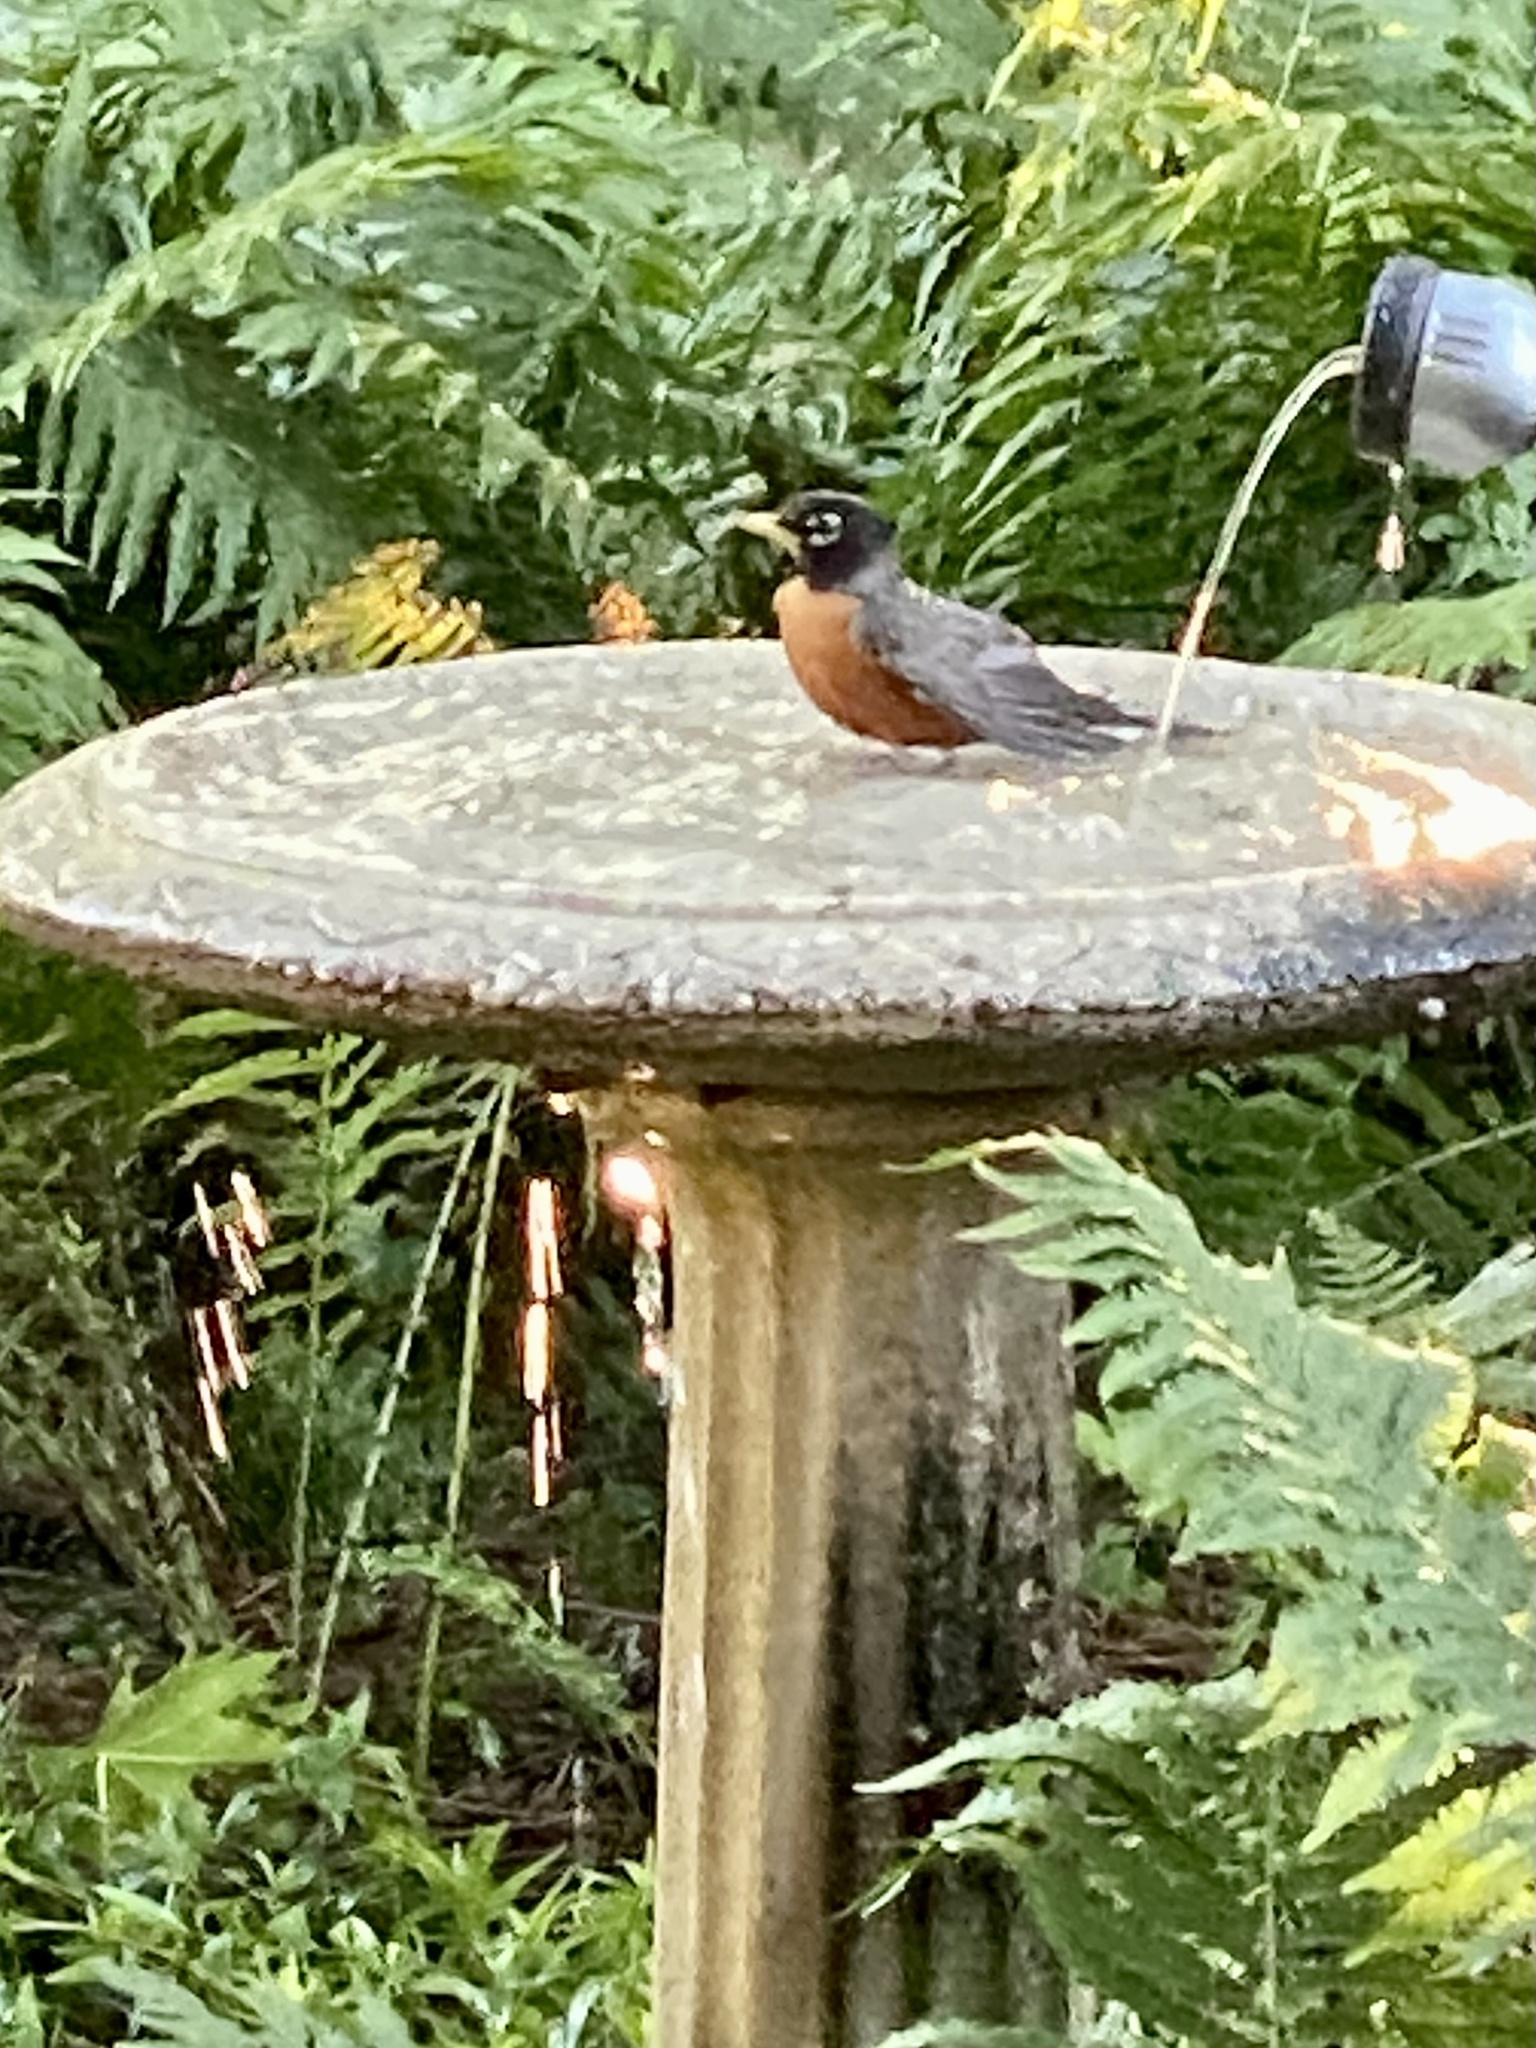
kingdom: Animalia
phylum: Chordata
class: Aves
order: Passeriformes
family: Turdidae
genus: Turdus
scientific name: Turdus migratorius
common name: American robin
